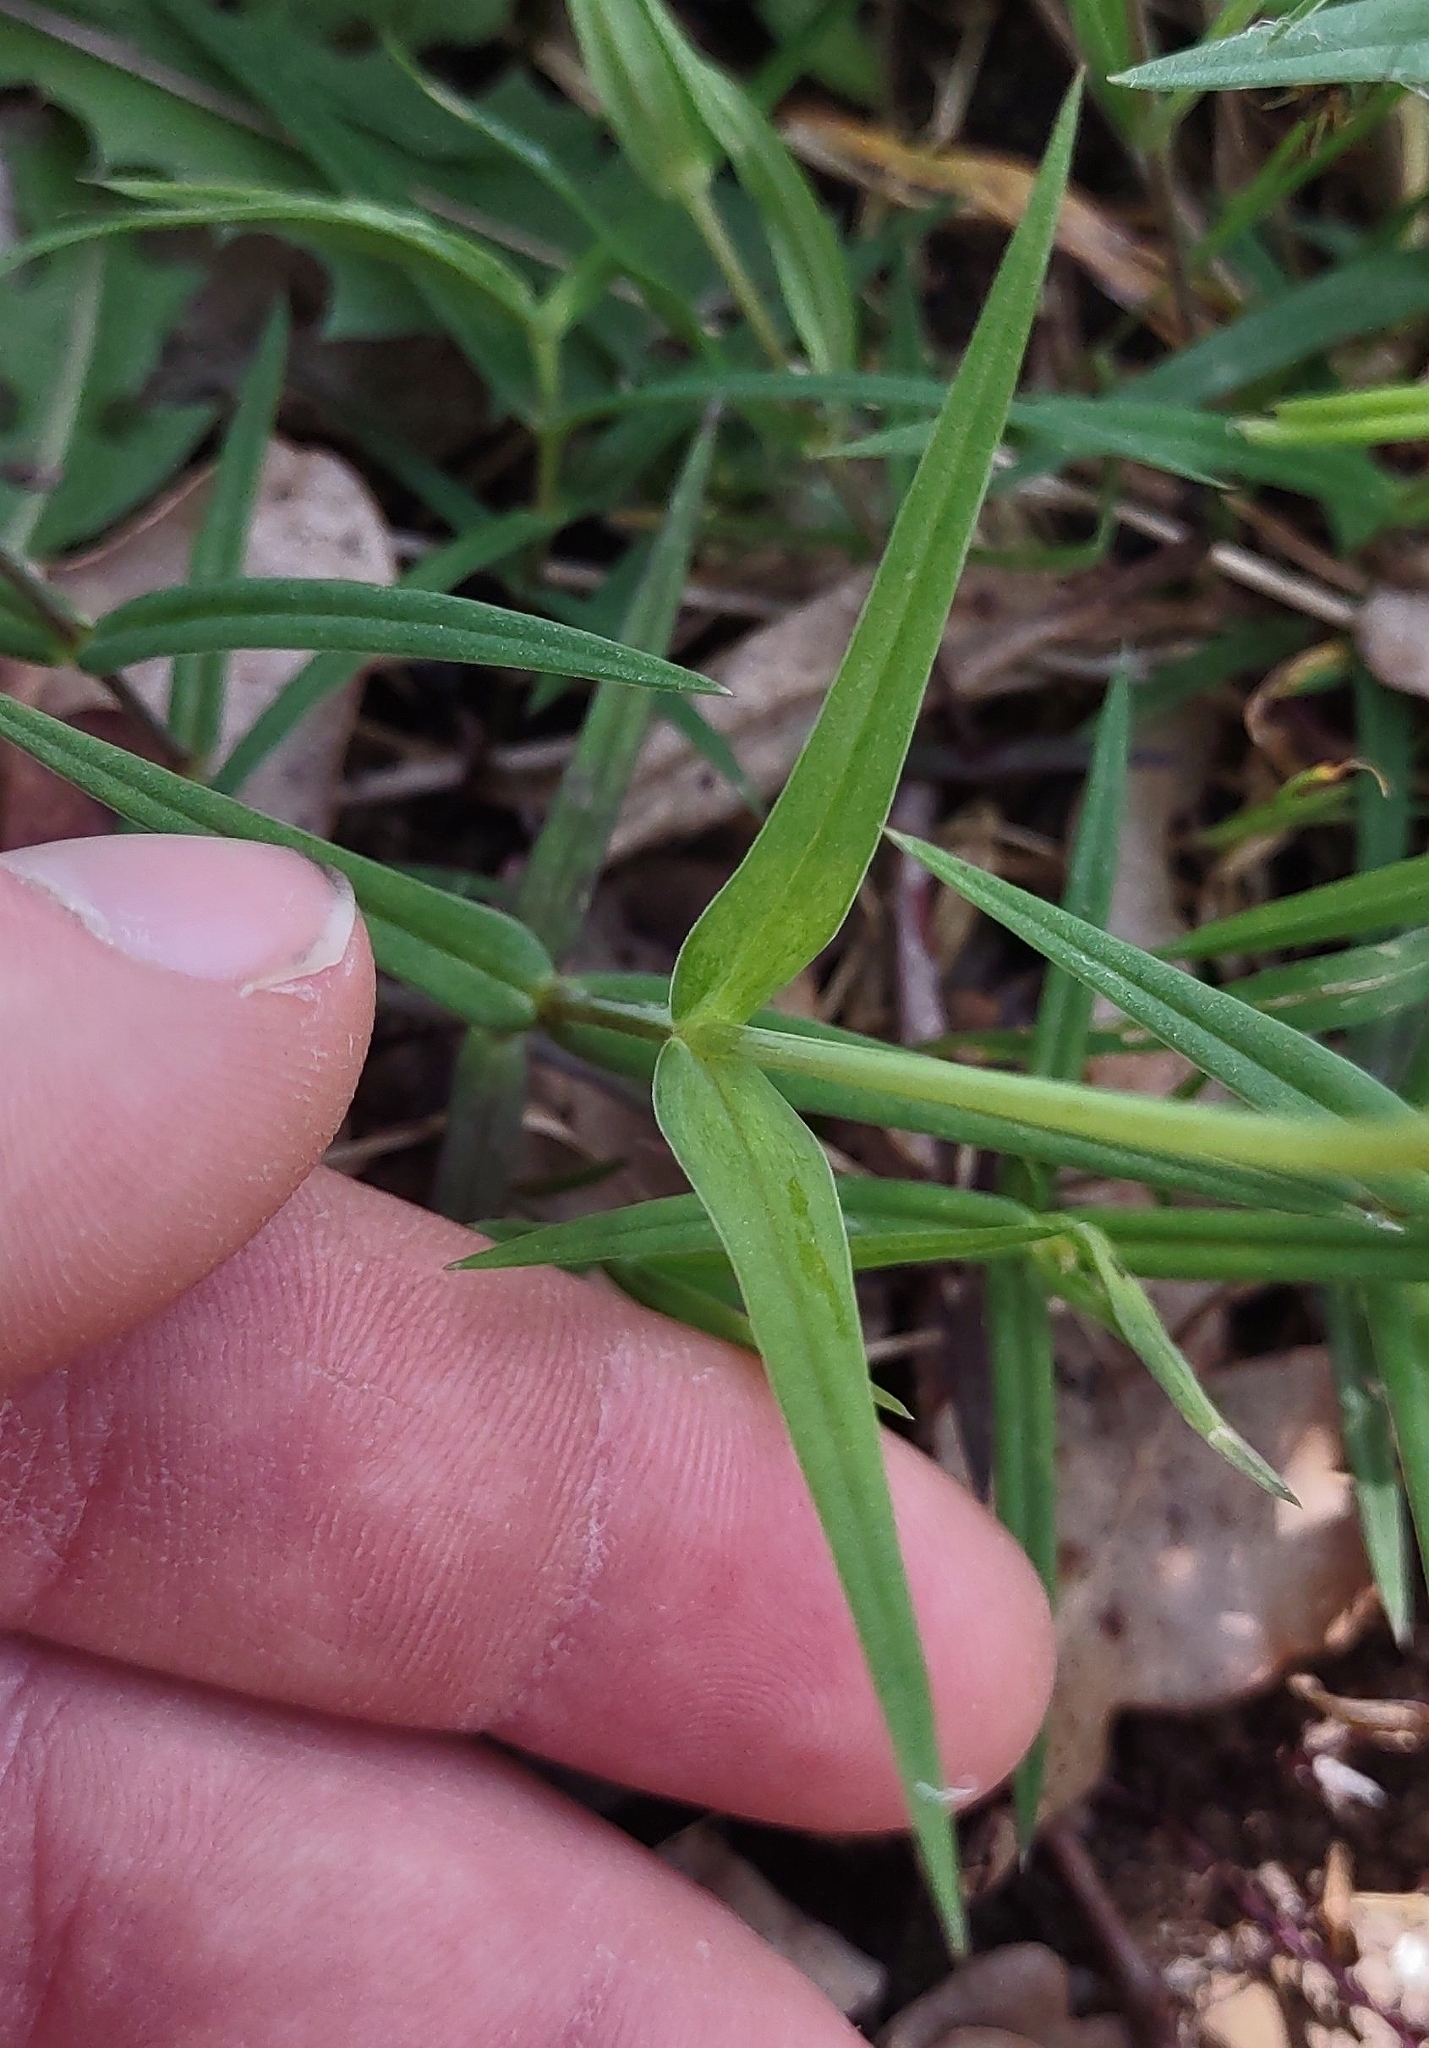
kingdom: Plantae
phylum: Tracheophyta
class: Magnoliopsida
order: Caryophyllales
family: Caryophyllaceae
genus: Rabelera
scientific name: Rabelera holostea
